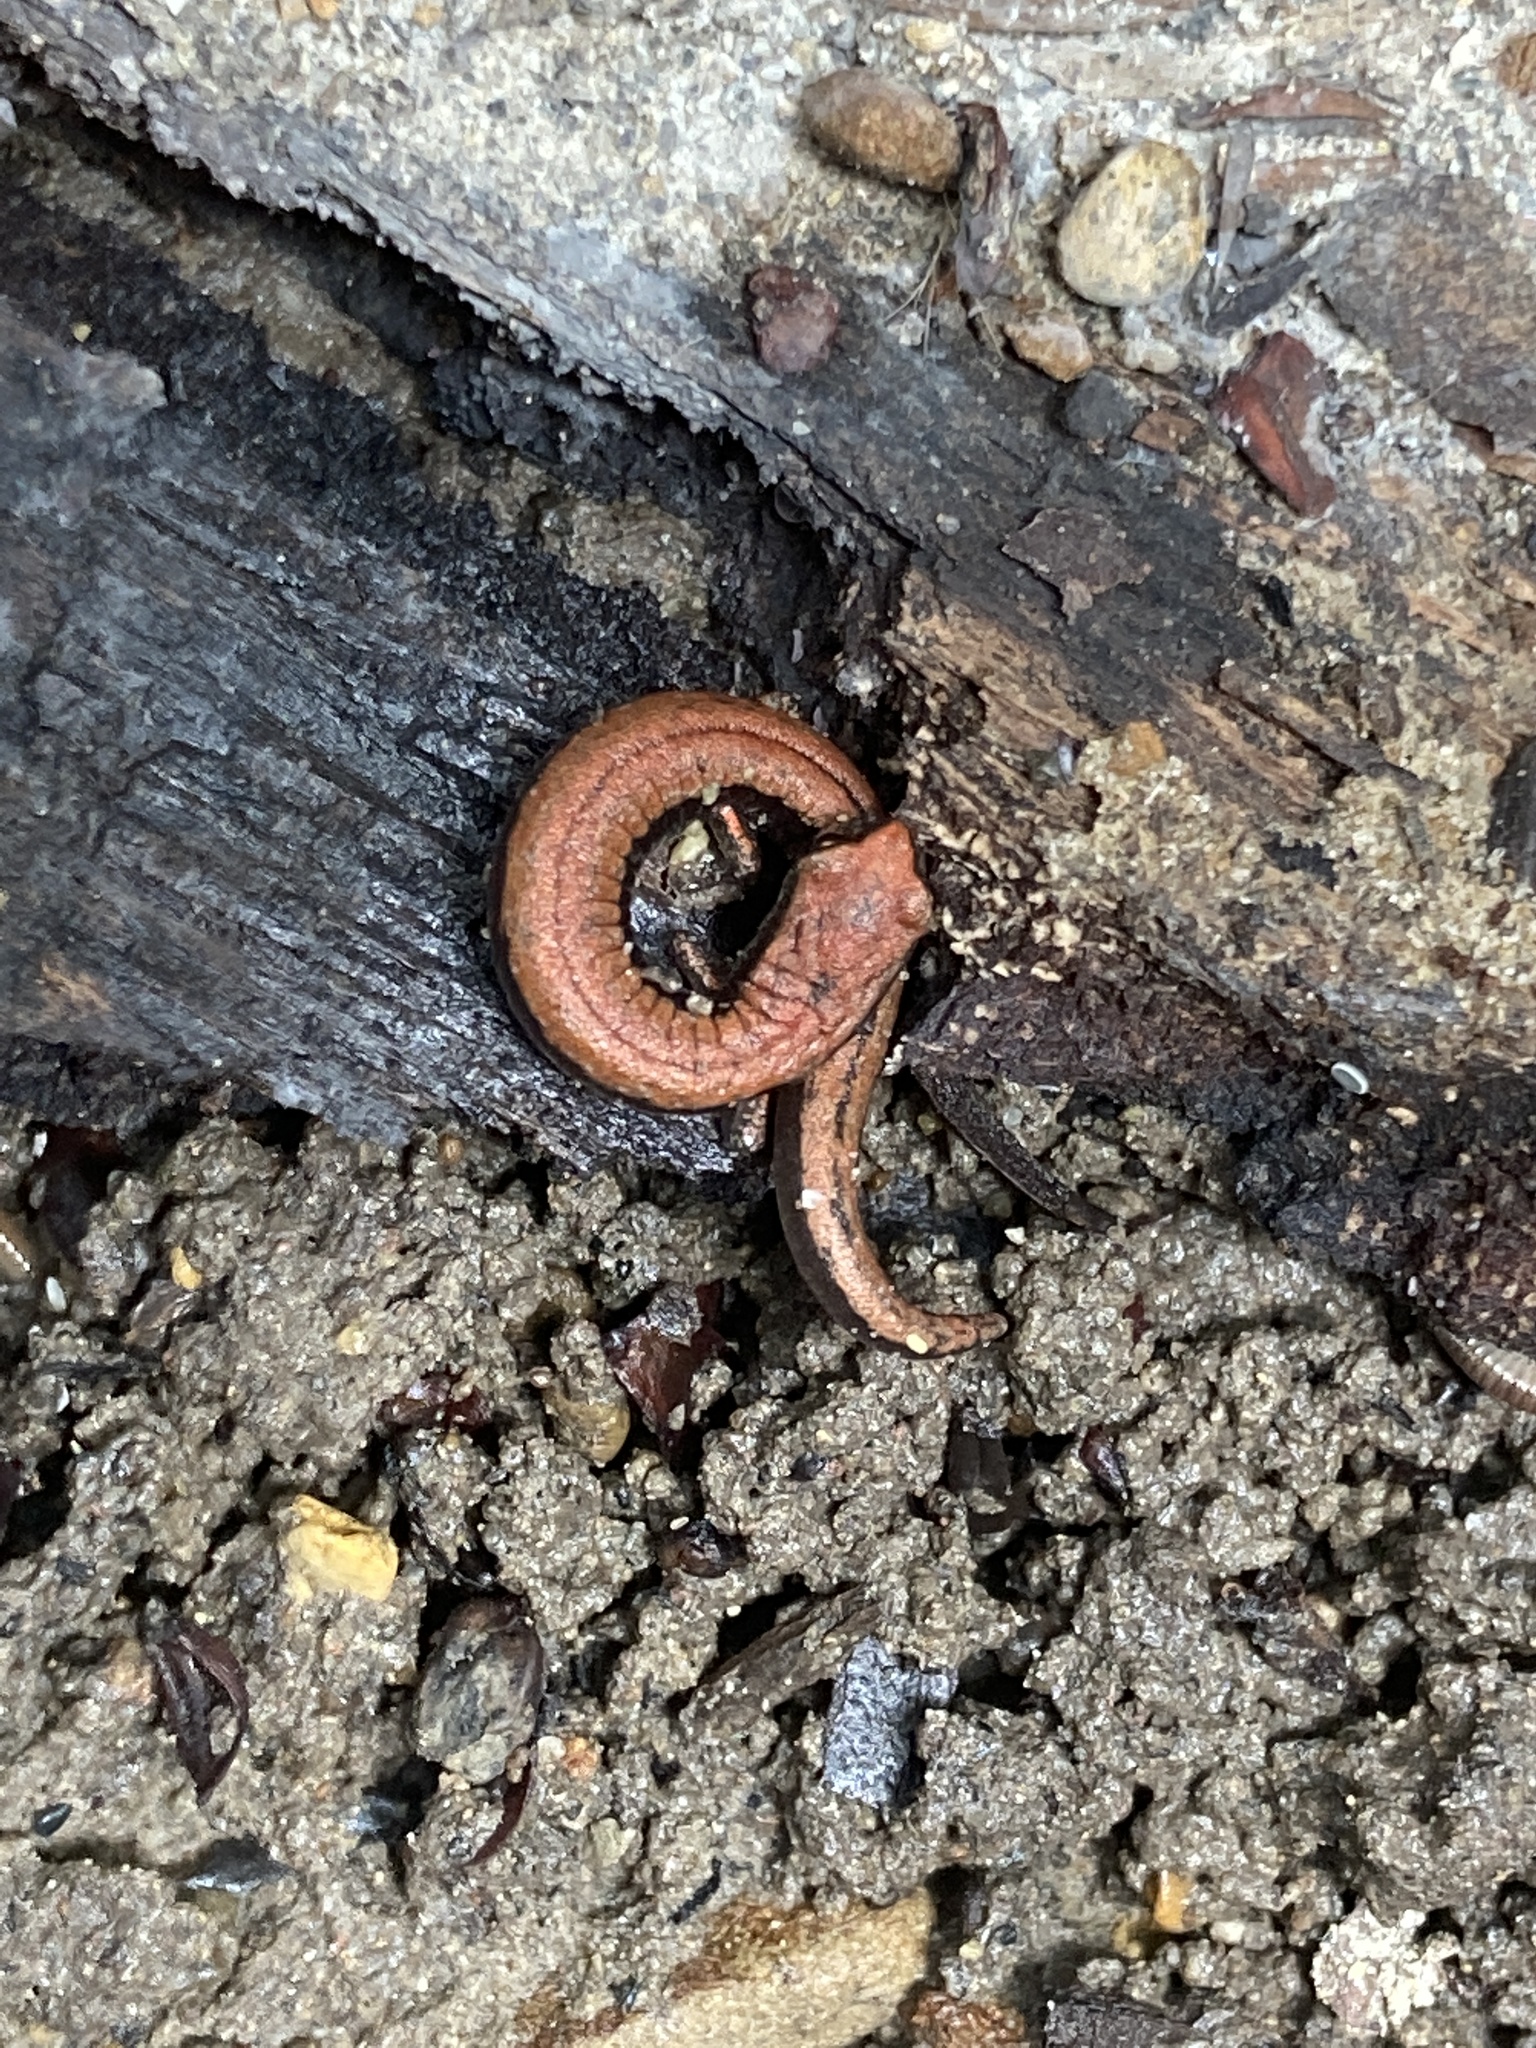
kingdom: Animalia
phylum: Chordata
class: Amphibia
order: Caudata
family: Plethodontidae
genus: Batrachoseps
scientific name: Batrachoseps attenuatus
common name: California slender salamander
